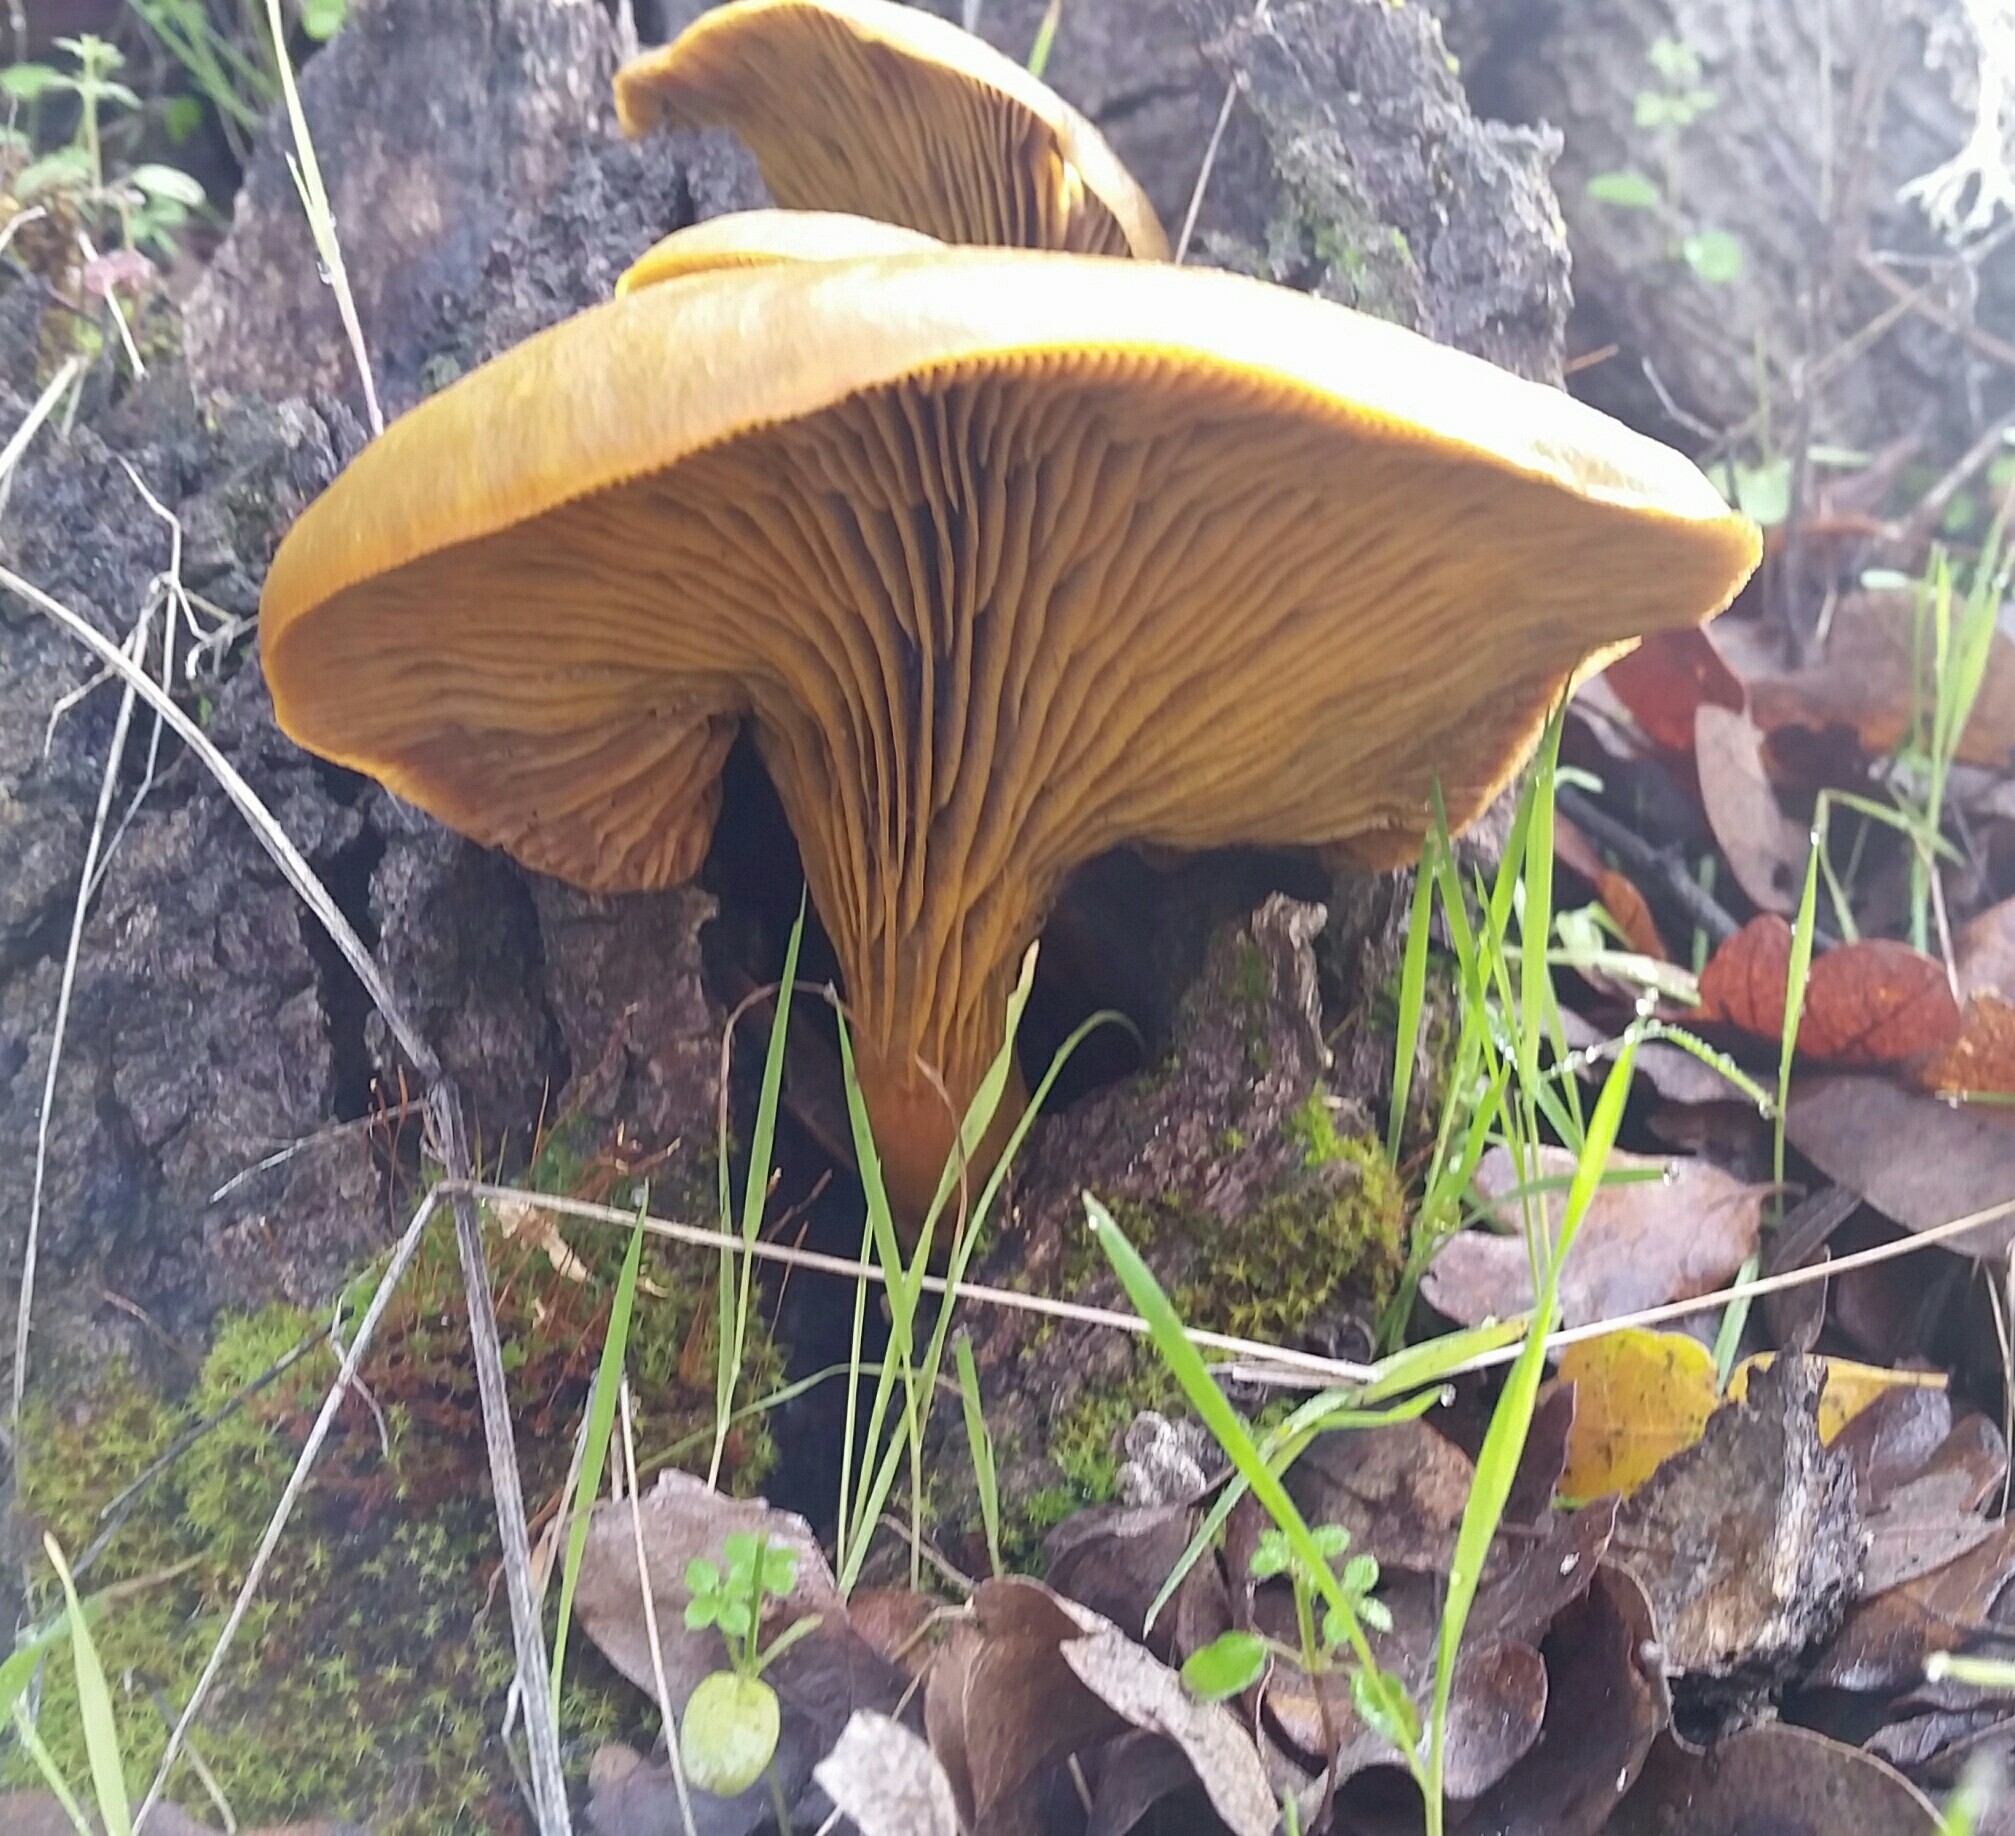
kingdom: Fungi
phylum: Basidiomycota
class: Agaricomycetes
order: Agaricales
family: Omphalotaceae
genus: Omphalotus
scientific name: Omphalotus olivascens
